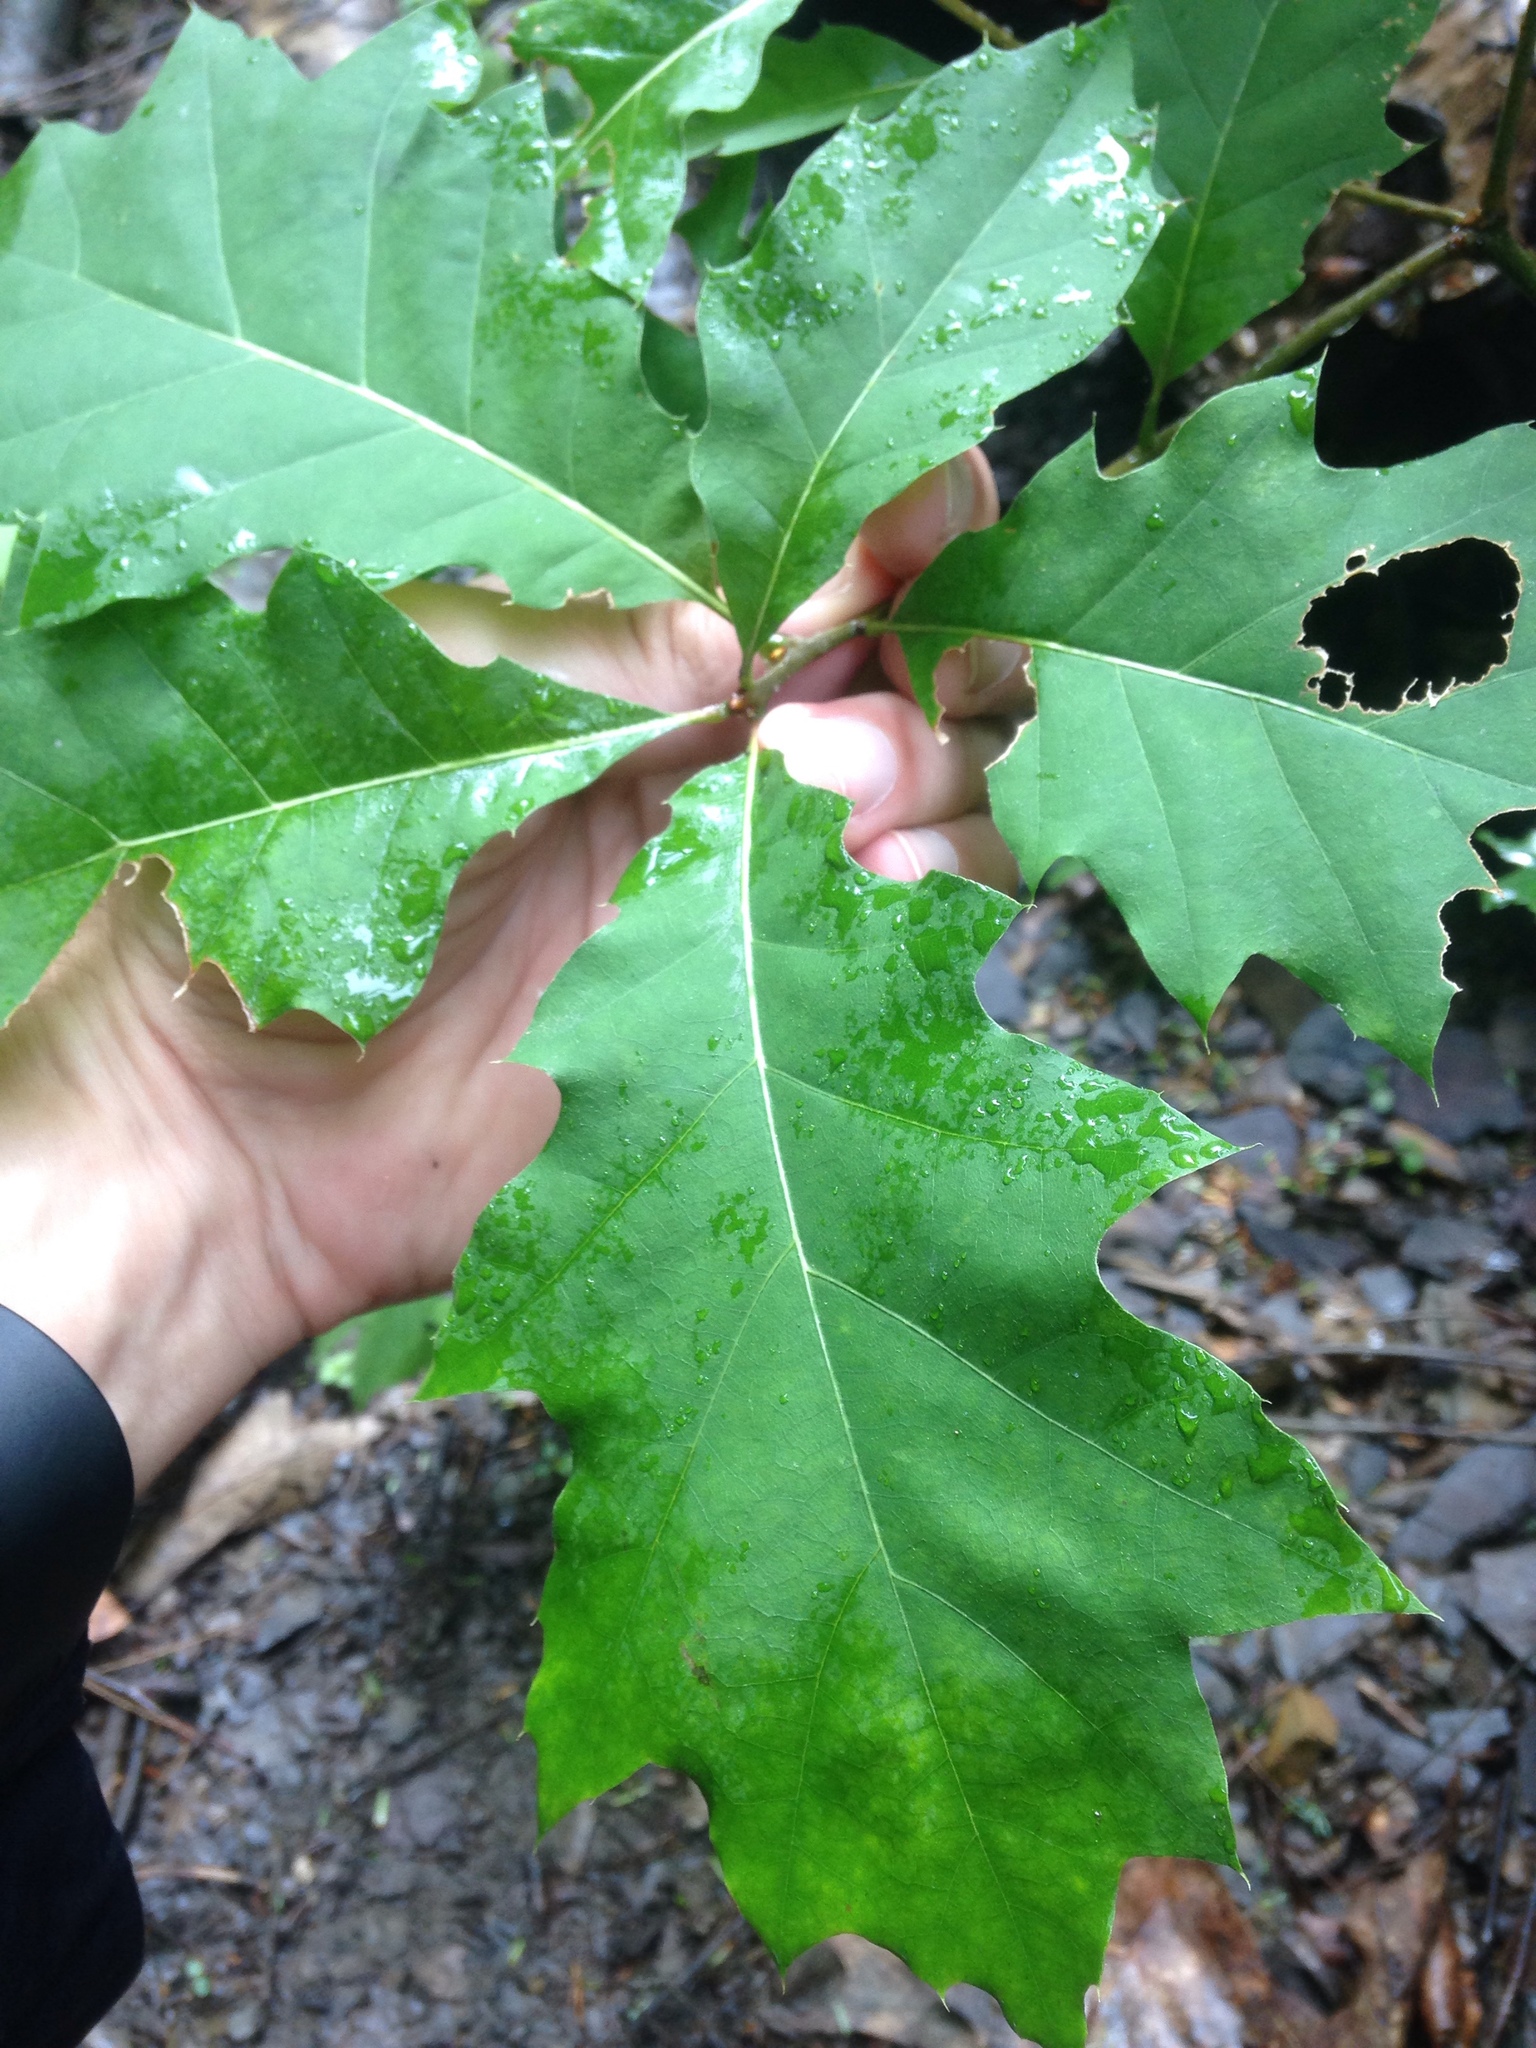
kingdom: Plantae
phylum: Tracheophyta
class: Magnoliopsida
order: Fagales
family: Fagaceae
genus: Quercus
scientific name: Quercus rubra
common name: Red oak
